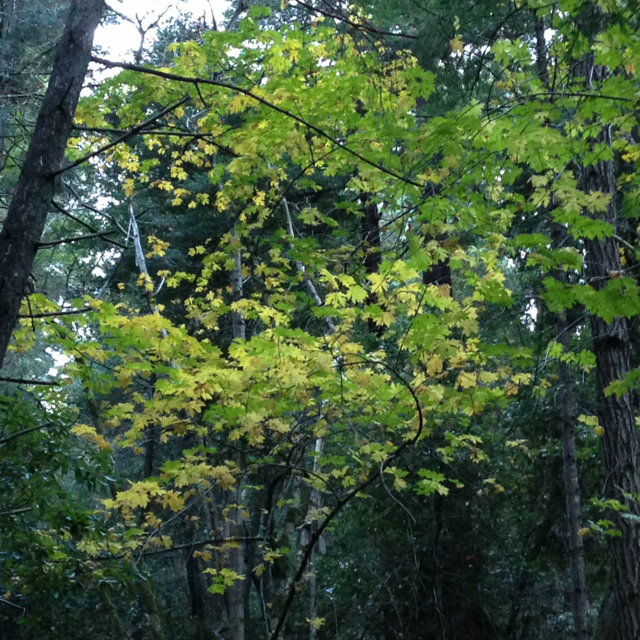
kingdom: Plantae
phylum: Tracheophyta
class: Magnoliopsida
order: Sapindales
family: Sapindaceae
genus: Acer
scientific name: Acer macrophyllum
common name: Oregon maple
